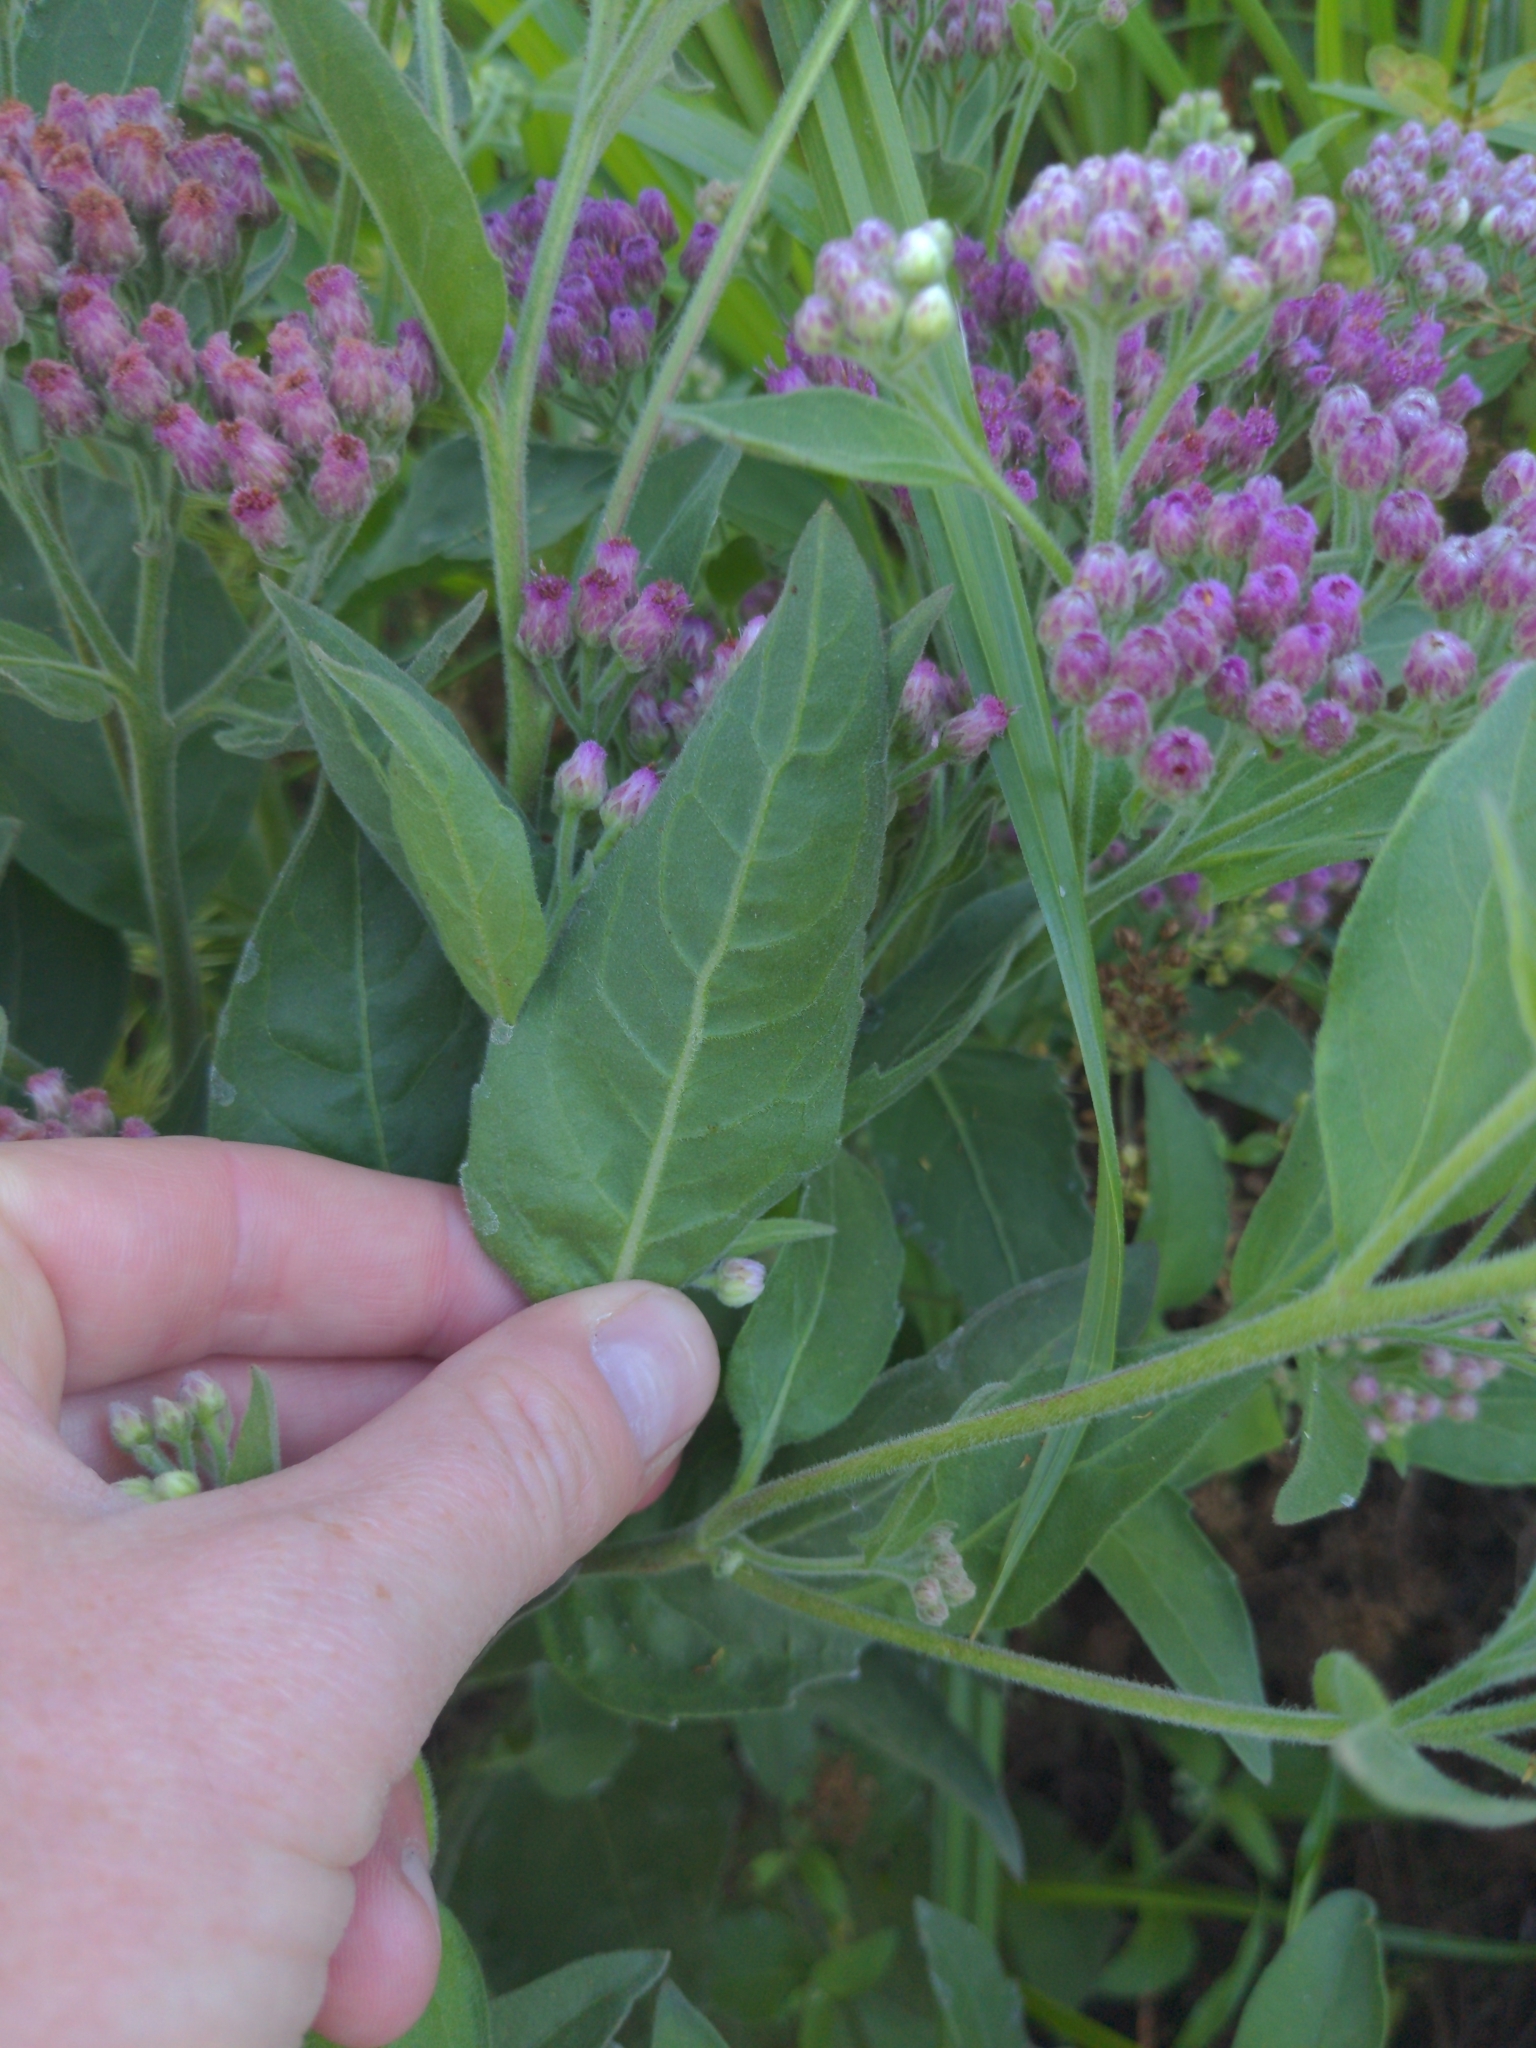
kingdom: Plantae
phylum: Tracheophyta
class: Magnoliopsida
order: Asterales
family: Asteraceae
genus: Pluchea
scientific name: Pluchea odorata
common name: Saltmarsh fleabane
